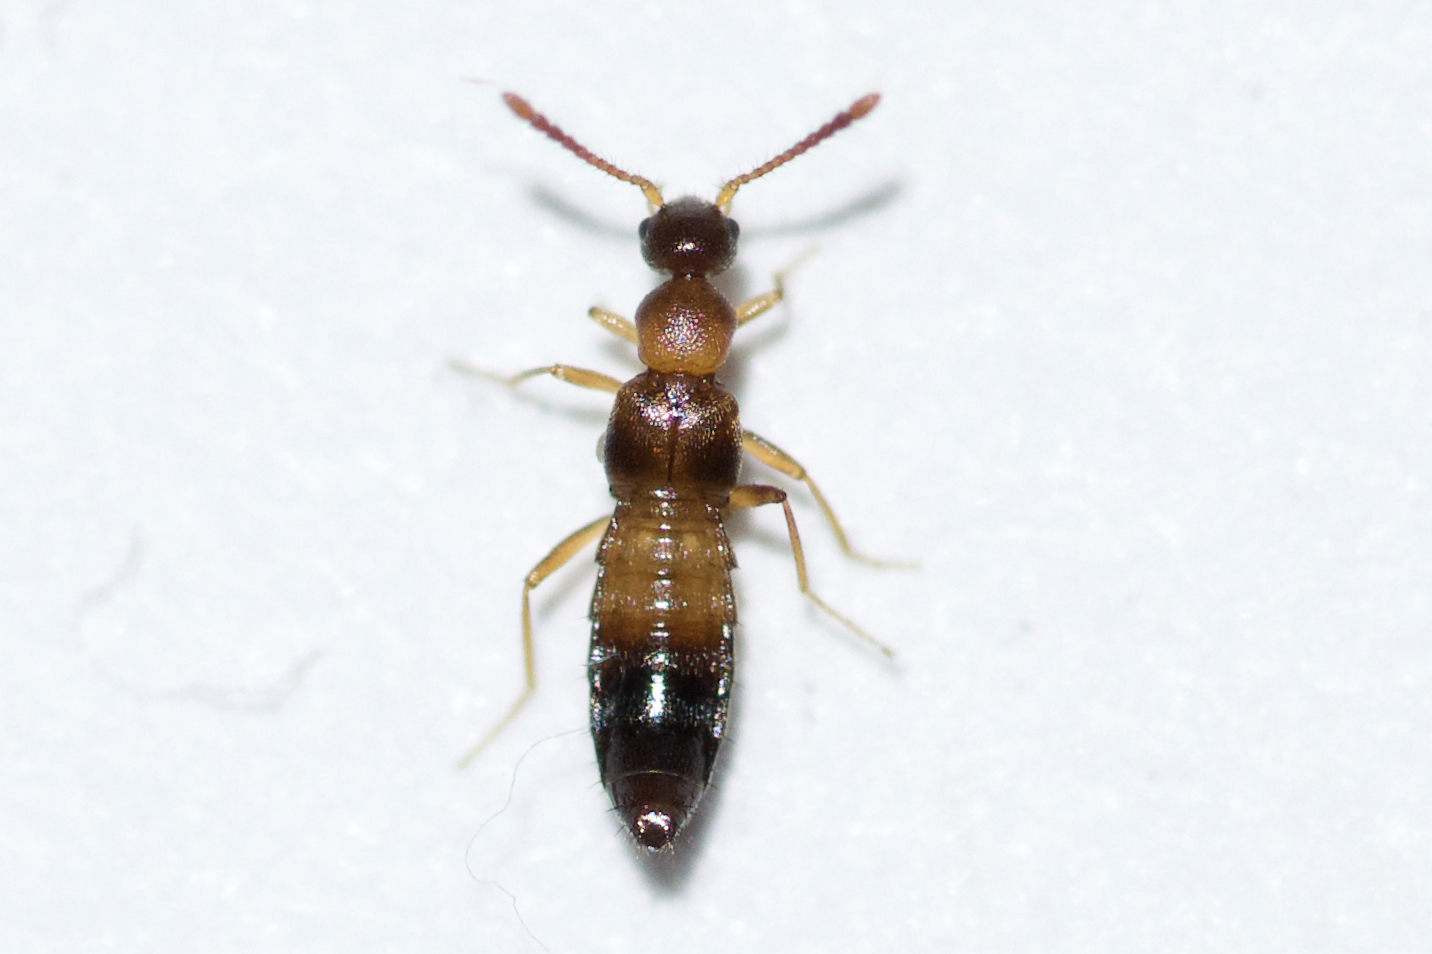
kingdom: Animalia
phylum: Arthropoda
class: Insecta
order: Coleoptera
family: Staphylinidae
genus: Meronera
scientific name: Meronera venustula
